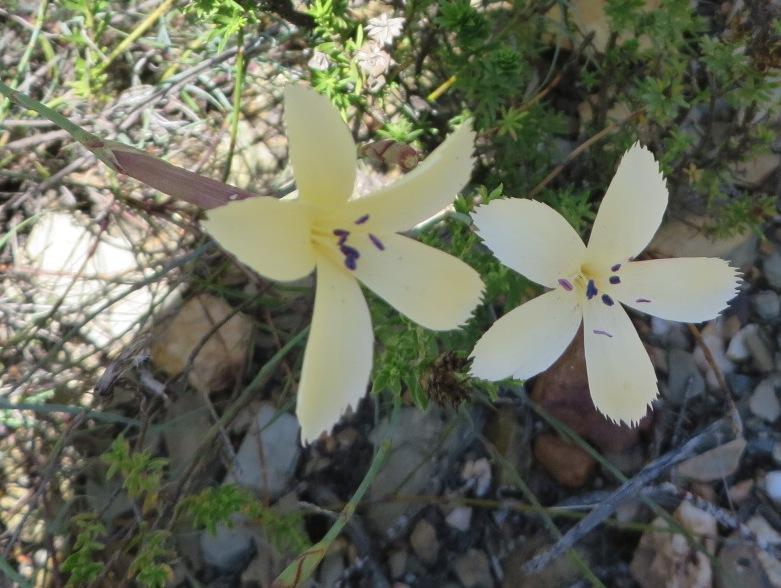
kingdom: Plantae
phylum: Tracheophyta
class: Magnoliopsida
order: Caryophyllales
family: Caryophyllaceae
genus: Dianthus
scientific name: Dianthus caespitosus
